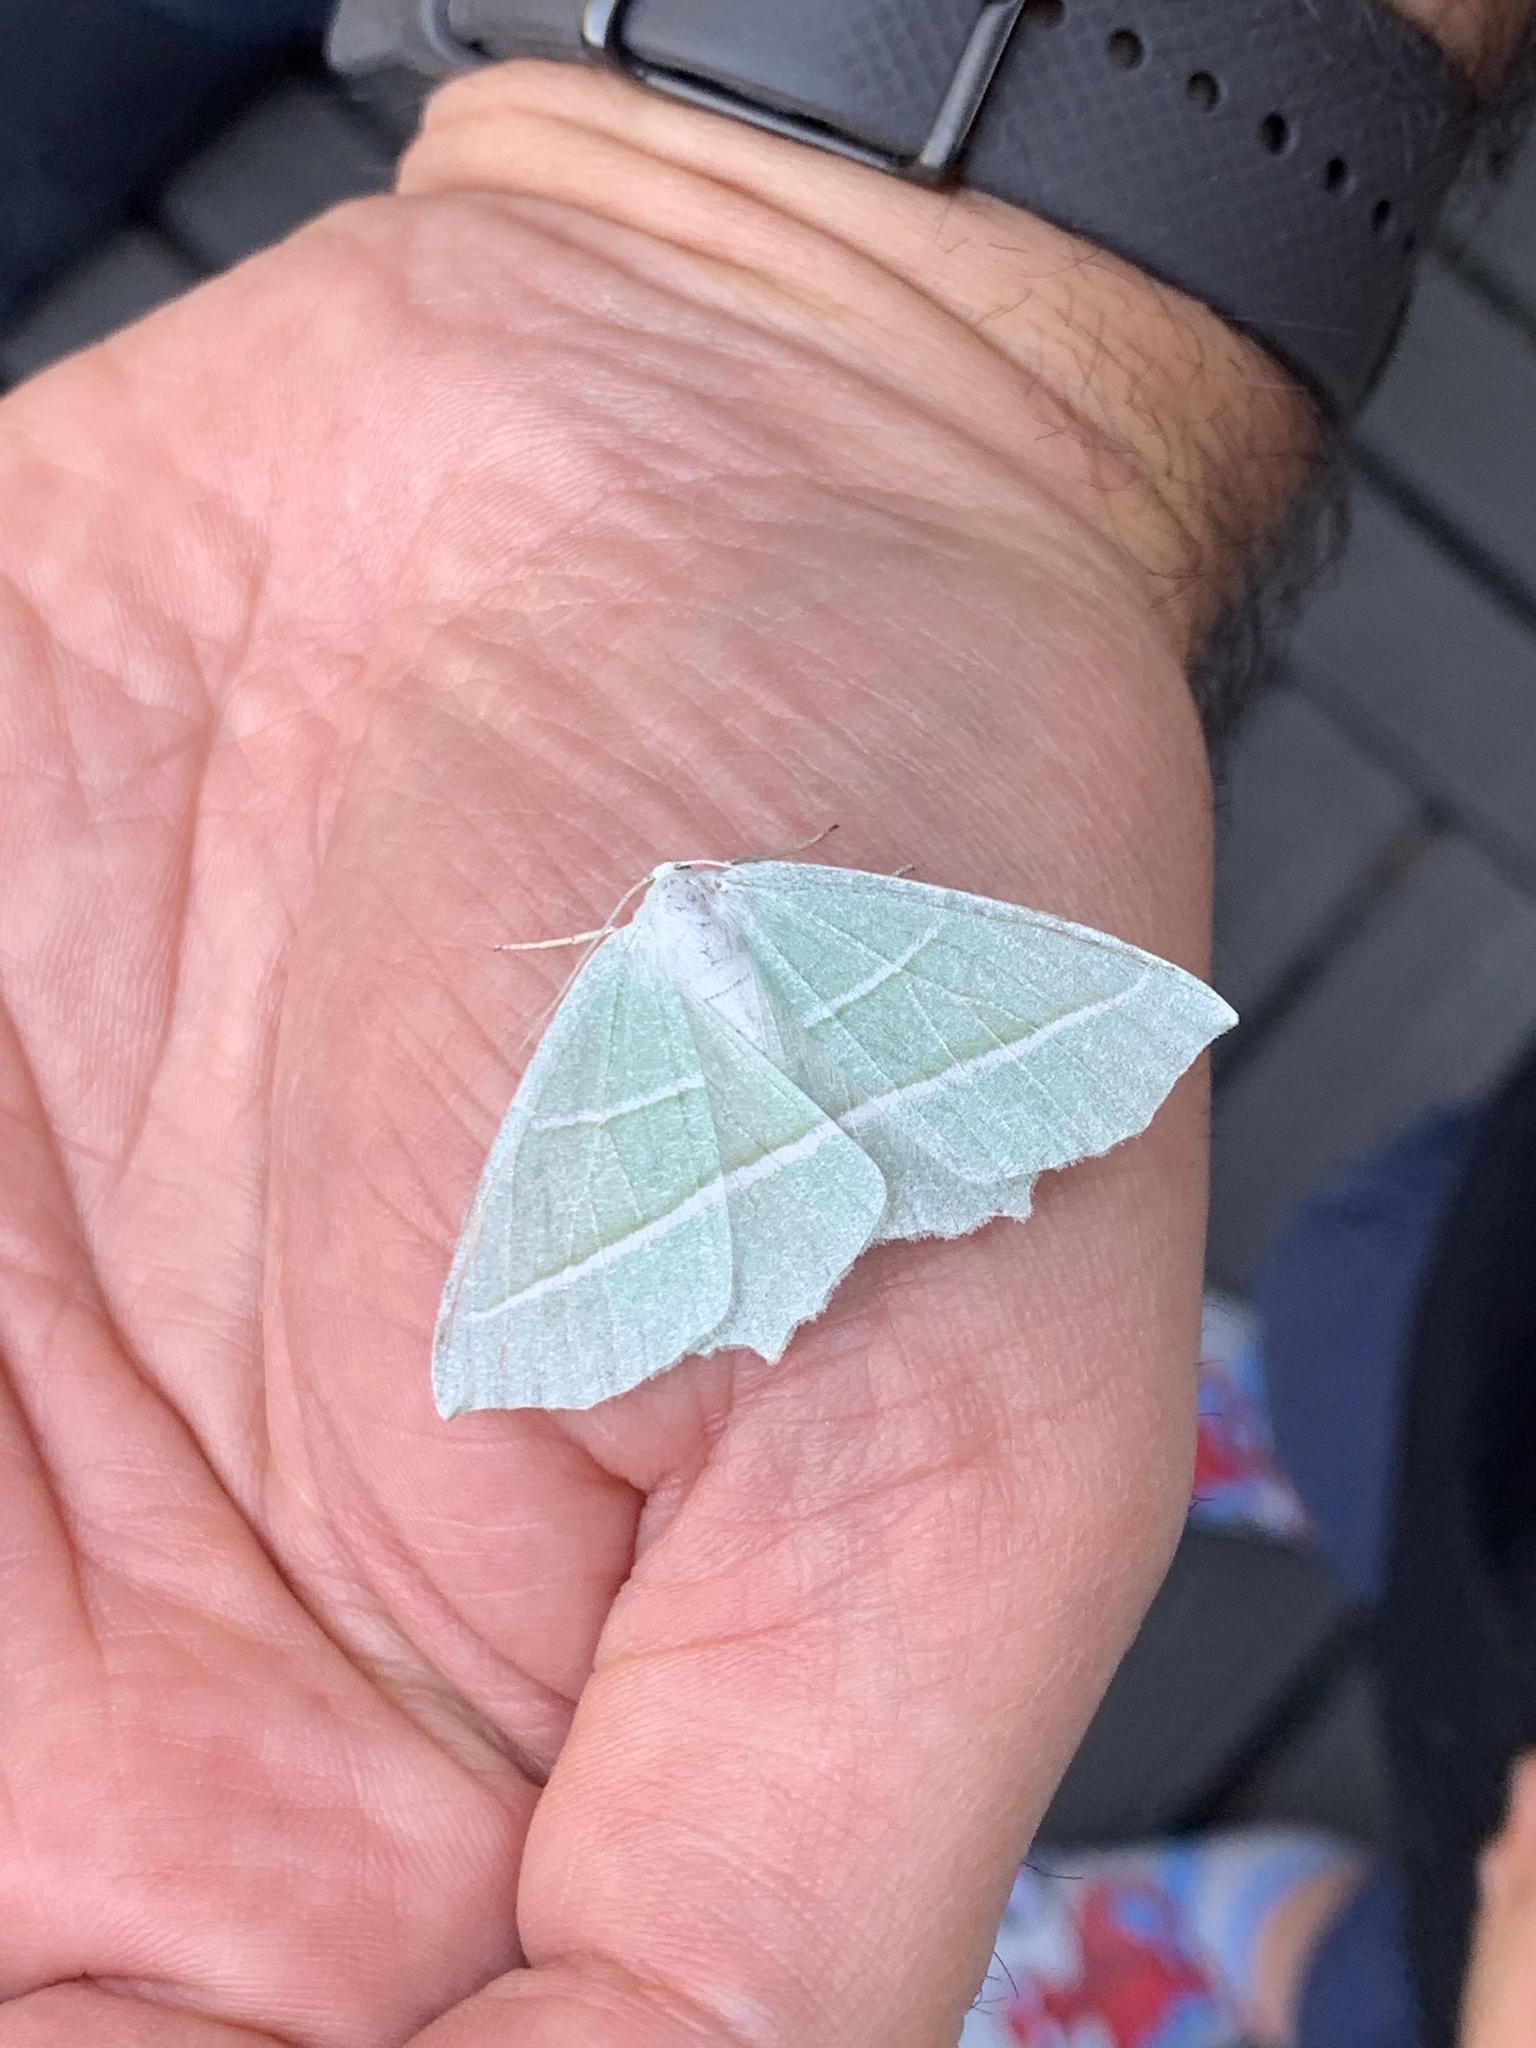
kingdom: Animalia
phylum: Arthropoda
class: Insecta
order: Lepidoptera
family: Geometridae
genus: Campaea
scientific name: Campaea margaritaria
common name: Light emerald
